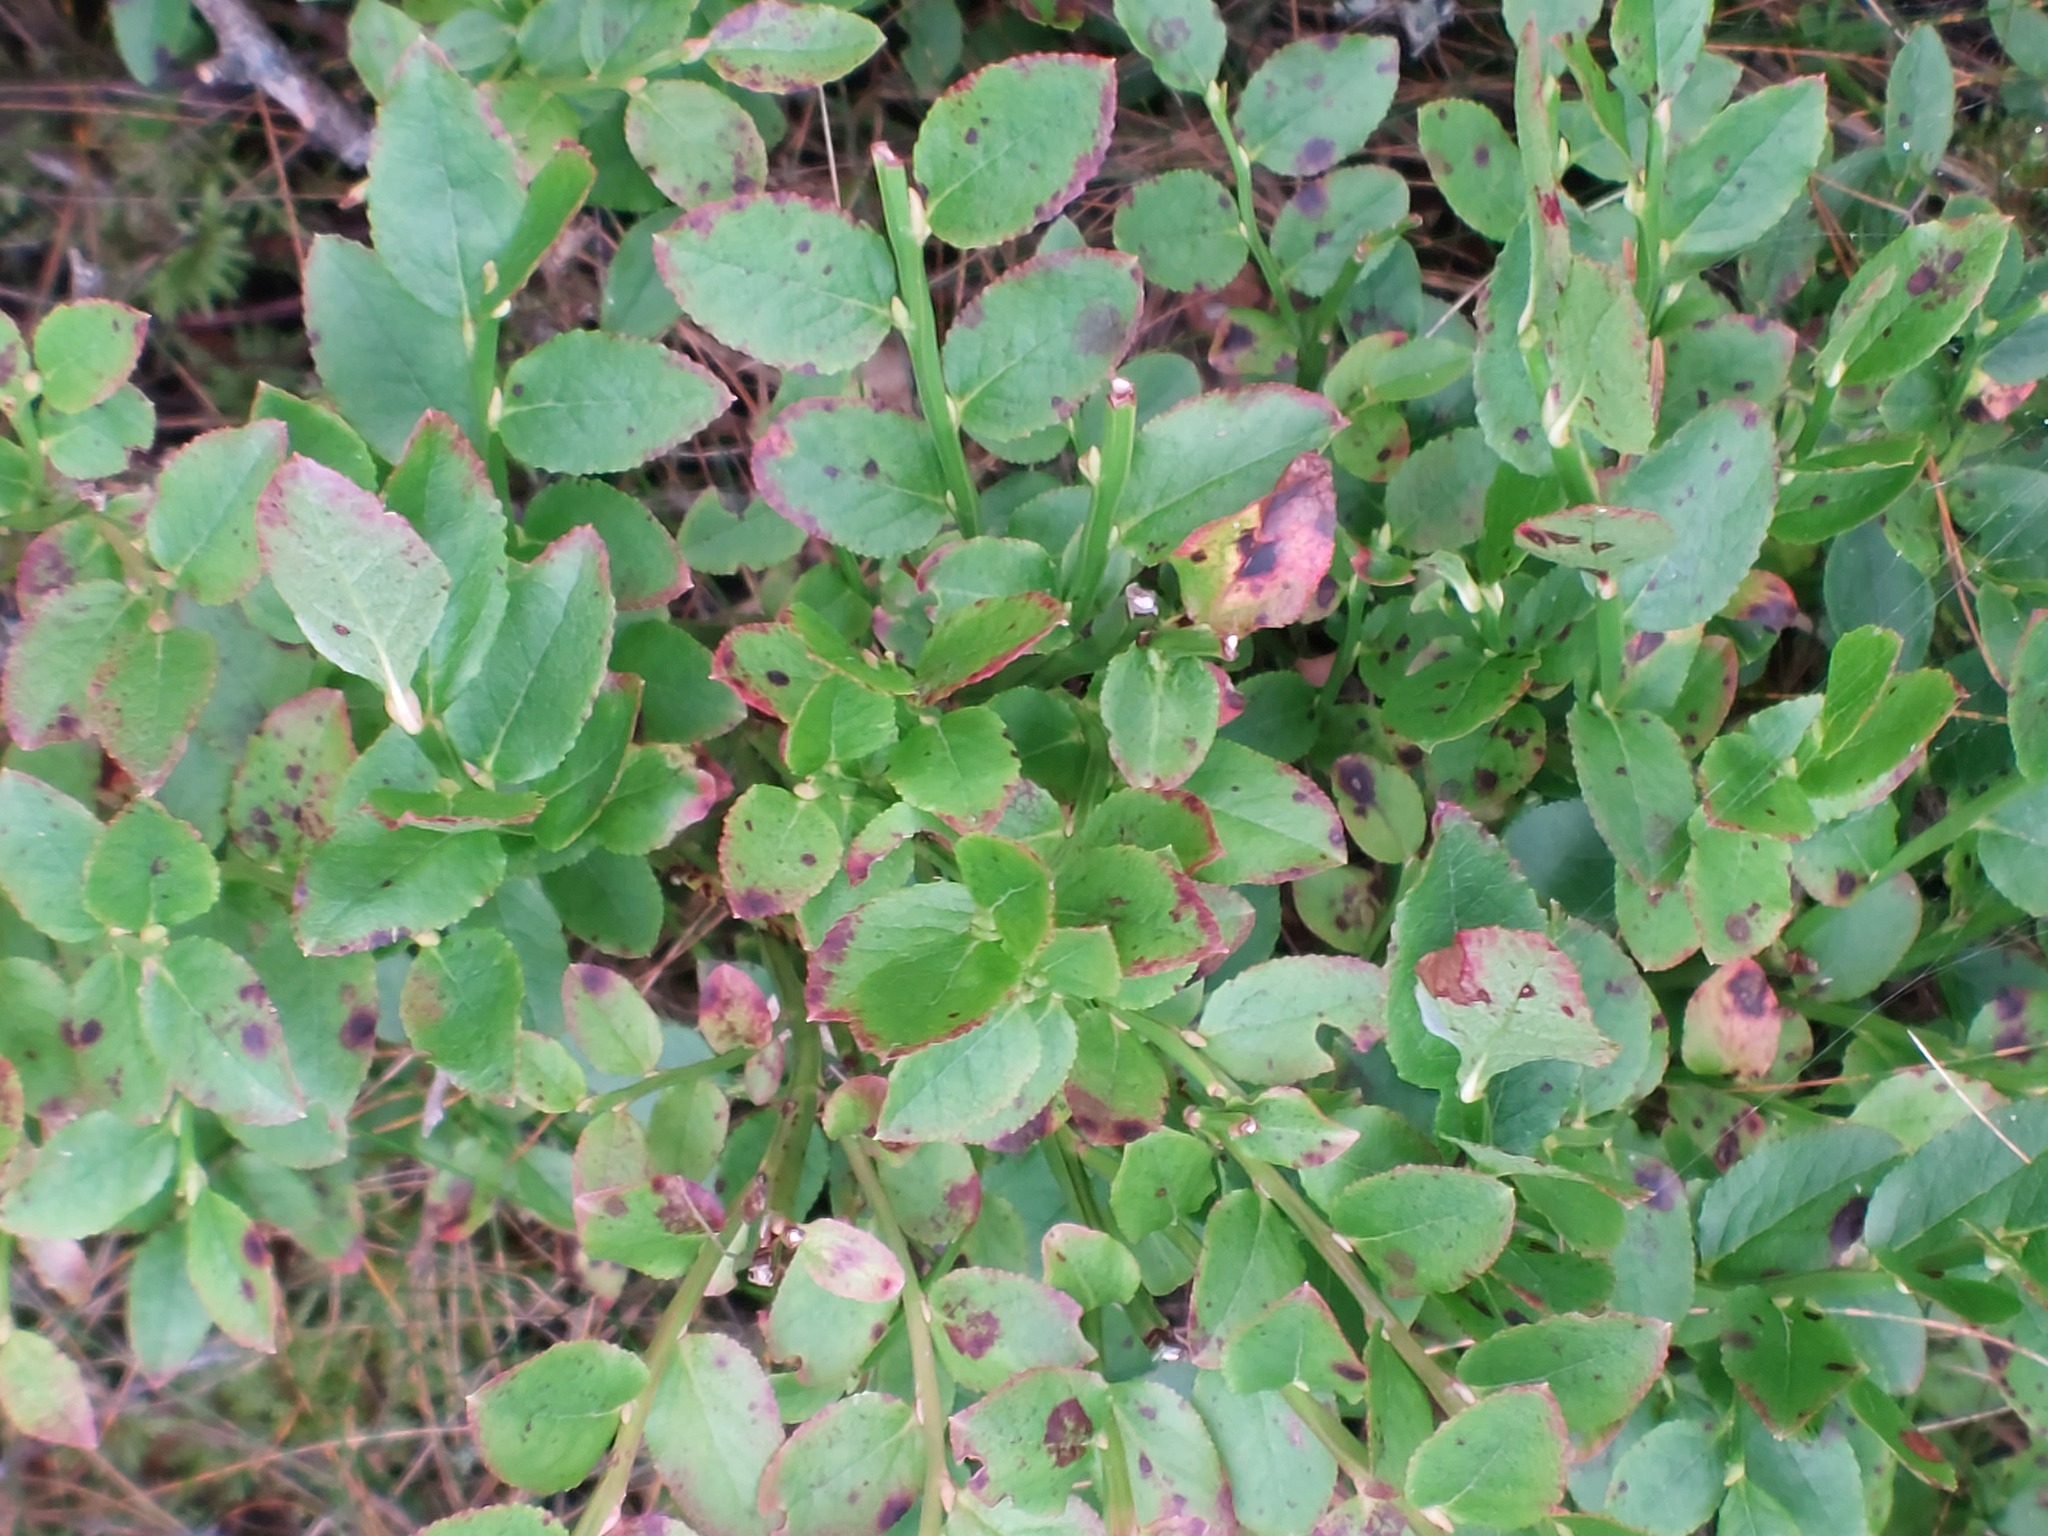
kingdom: Plantae
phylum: Tracheophyta
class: Magnoliopsida
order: Ericales
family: Ericaceae
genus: Vaccinium
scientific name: Vaccinium myrtillus
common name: Bilberry
